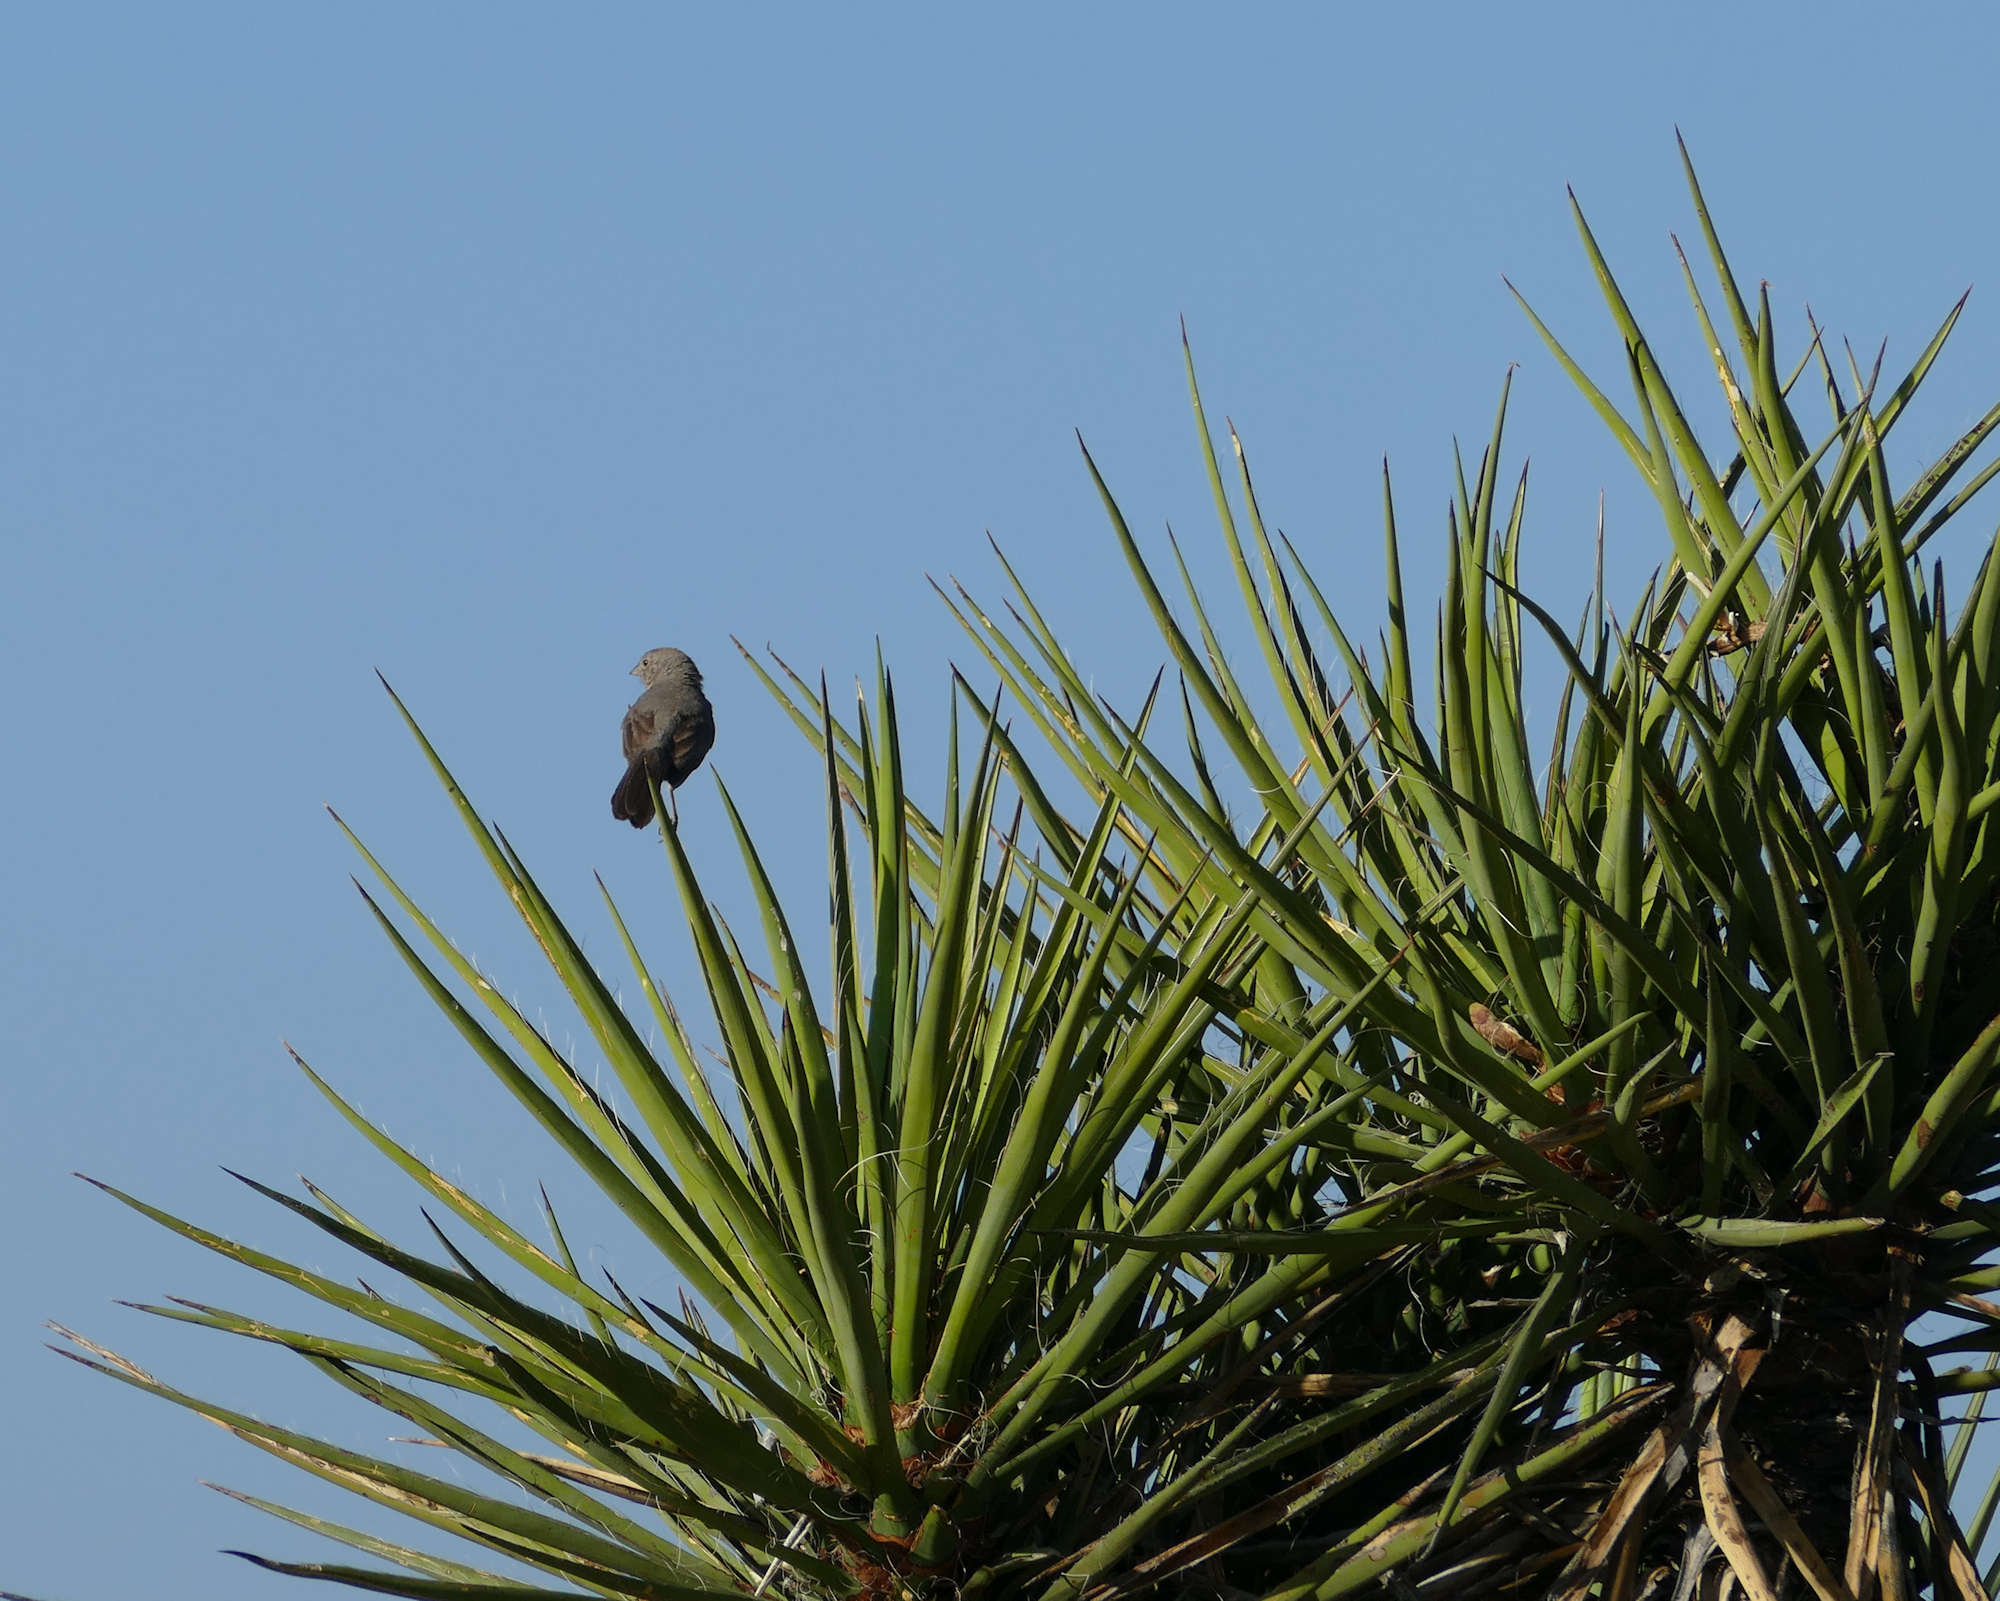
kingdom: Plantae
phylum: Tracheophyta
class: Liliopsida
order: Asparagales
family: Asparagaceae
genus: Yucca
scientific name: Yucca treculiana
